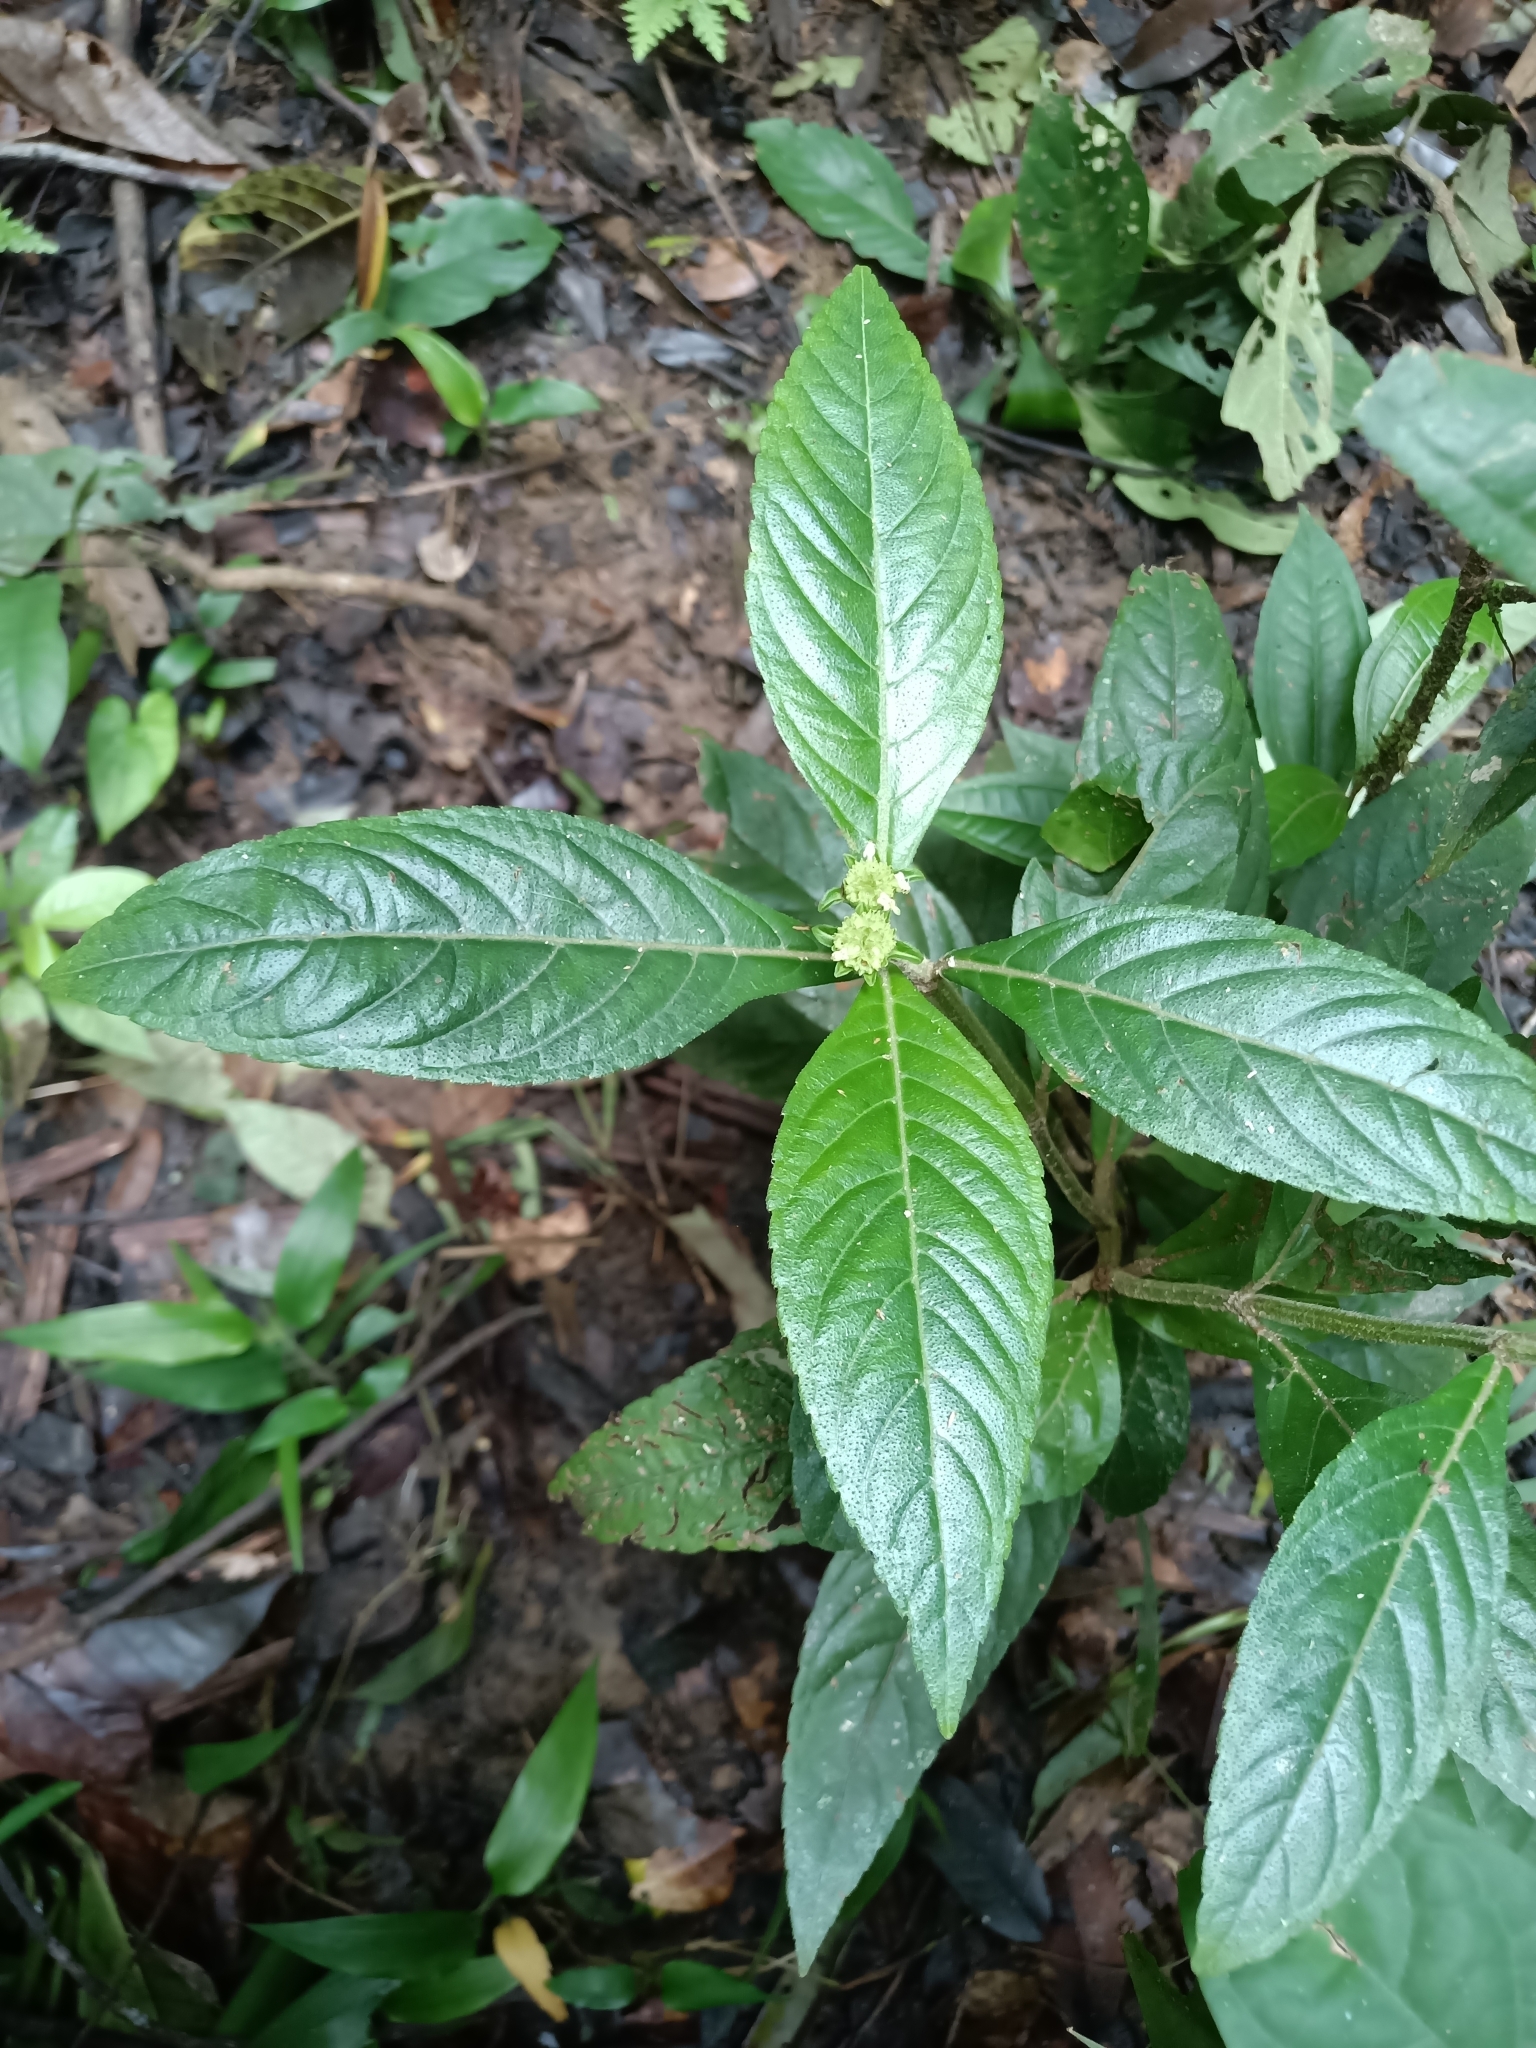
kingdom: Plantae
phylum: Tracheophyta
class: Magnoliopsida
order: Lamiales
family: Lamiaceae
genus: Hyptis
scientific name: Hyptis pachycephala
